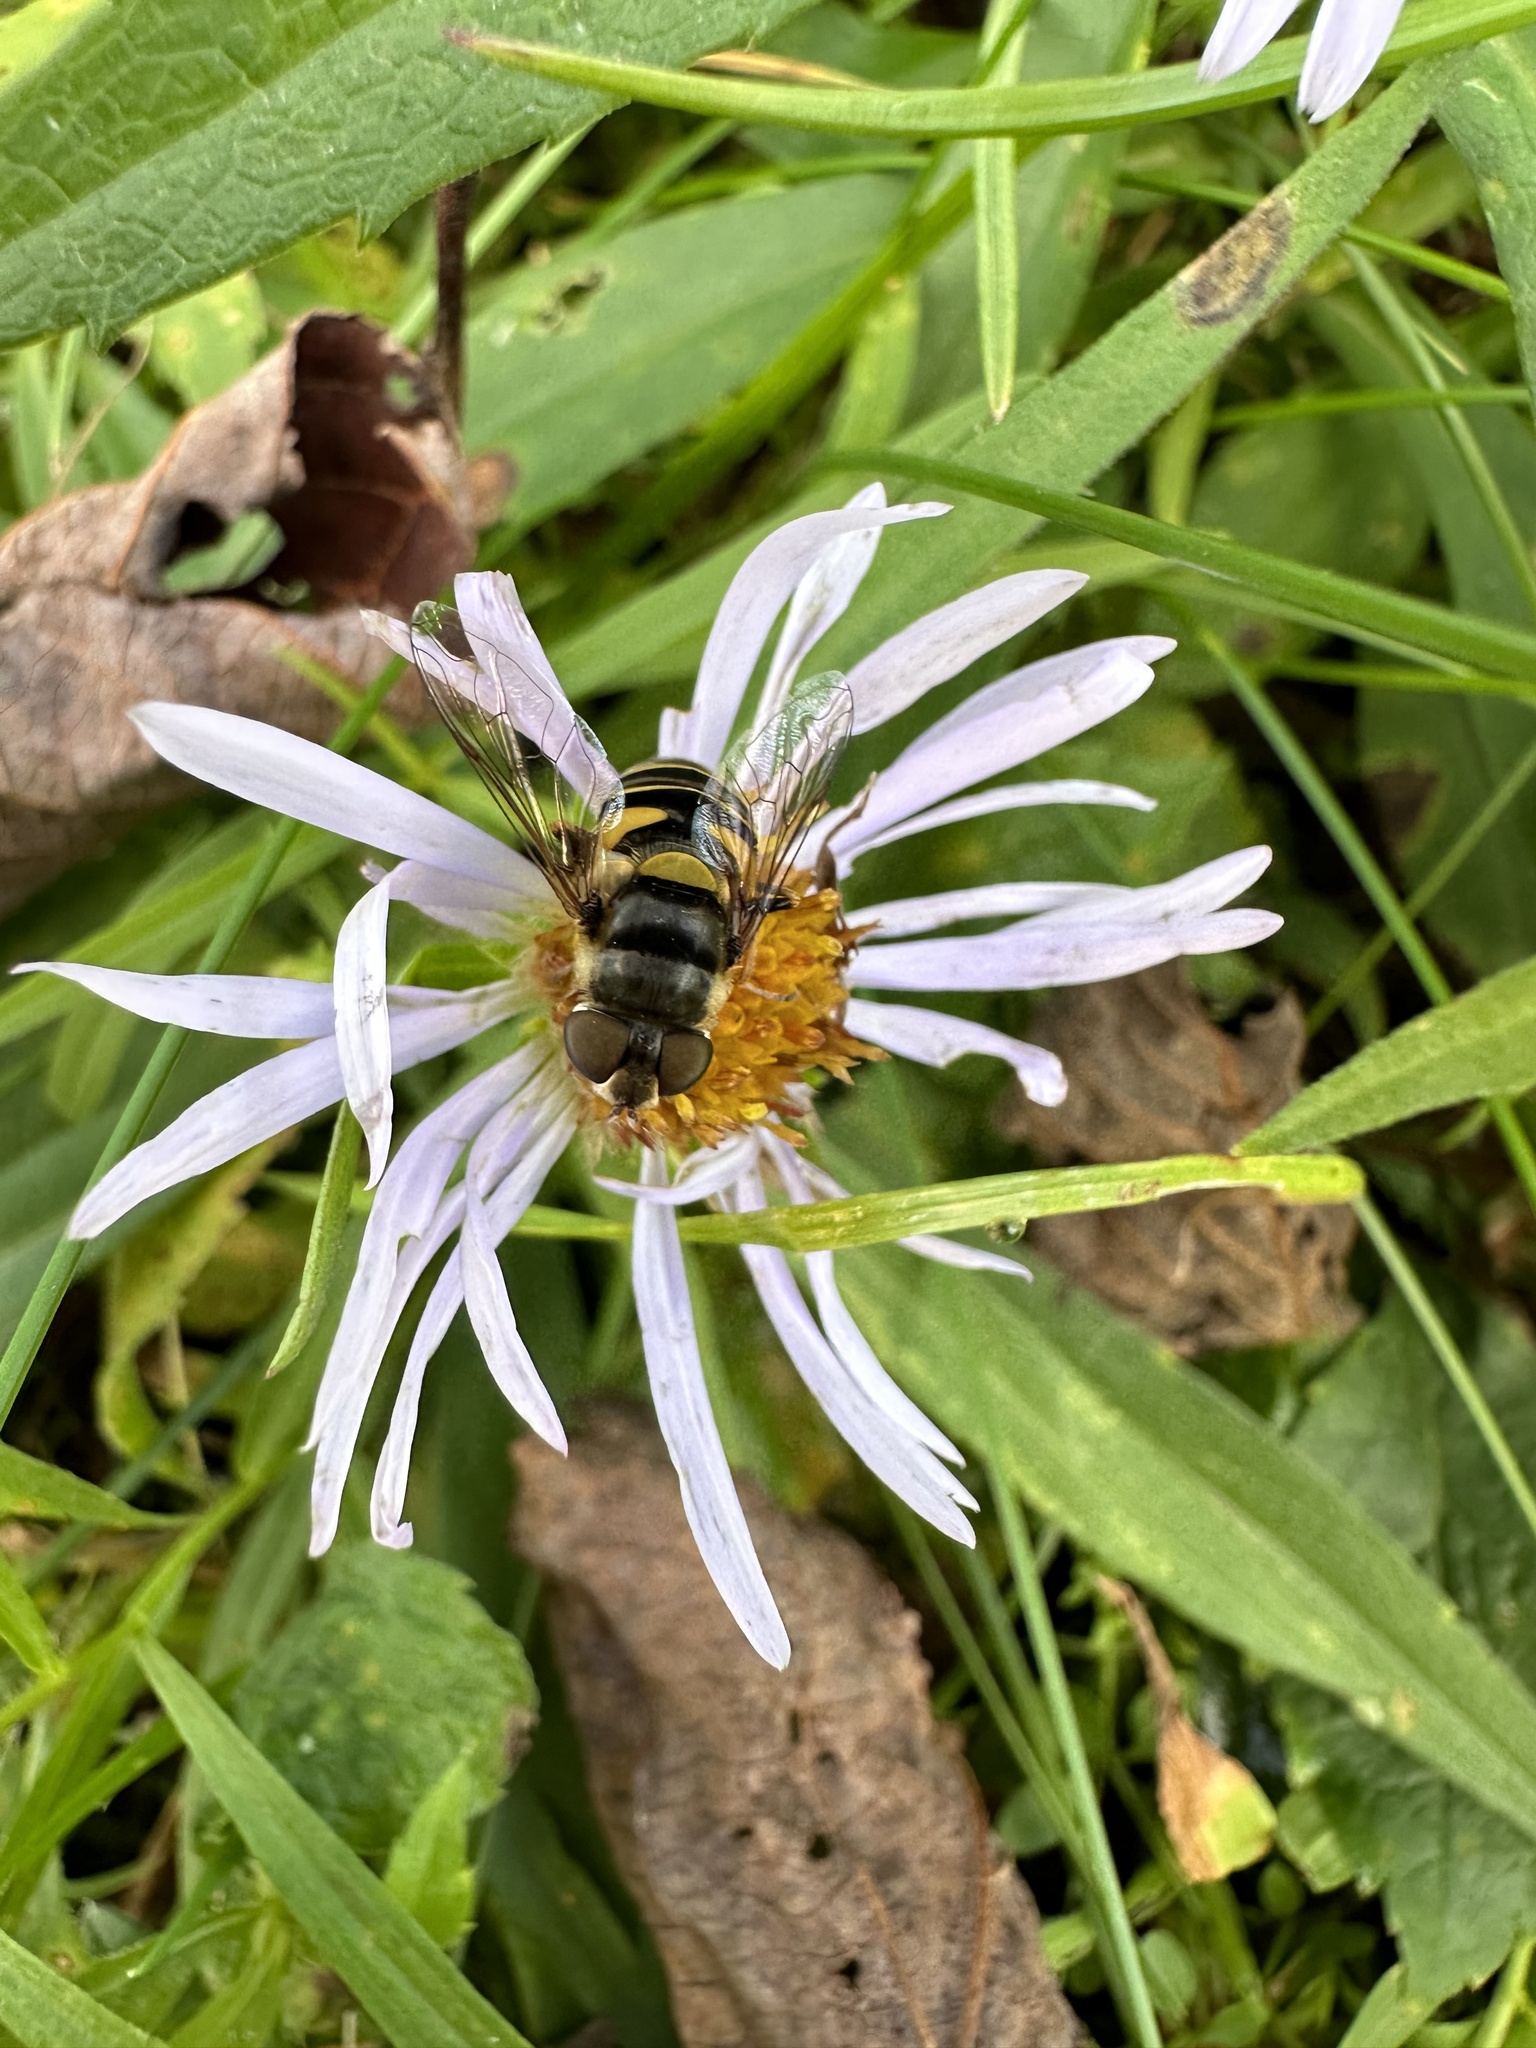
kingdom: Animalia
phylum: Arthropoda
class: Insecta
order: Diptera
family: Syrphidae
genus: Eristalis
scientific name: Eristalis transversa
